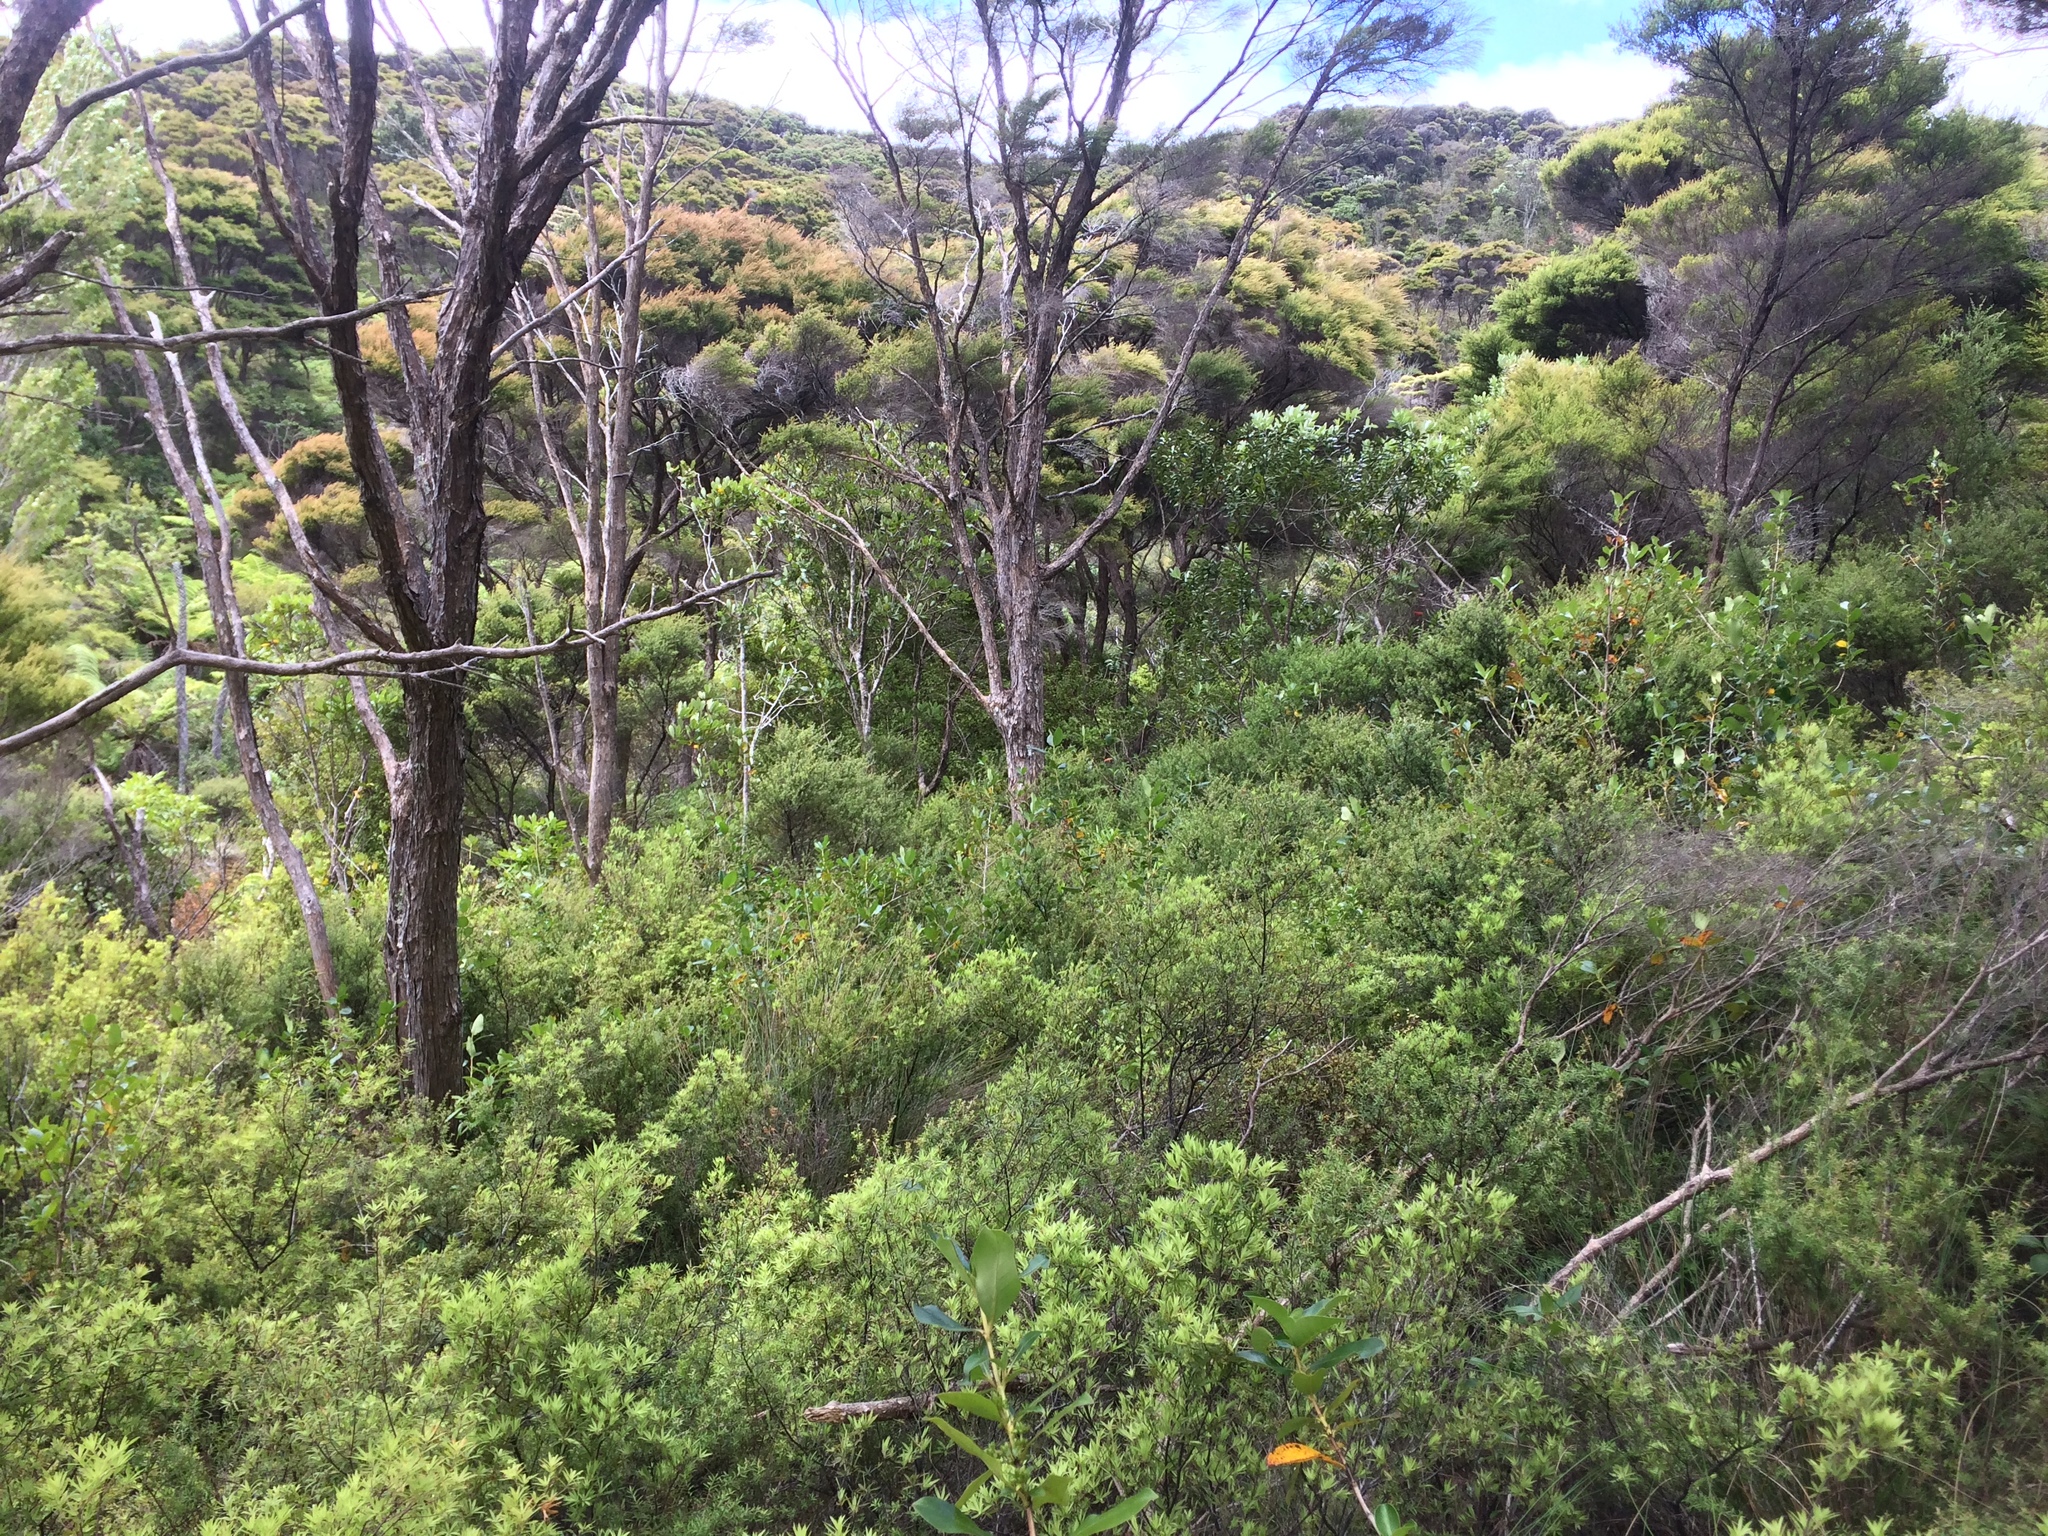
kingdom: Plantae
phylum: Tracheophyta
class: Magnoliopsida
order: Ericales
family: Ericaceae
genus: Leucopogon
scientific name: Leucopogon fasciculatus
